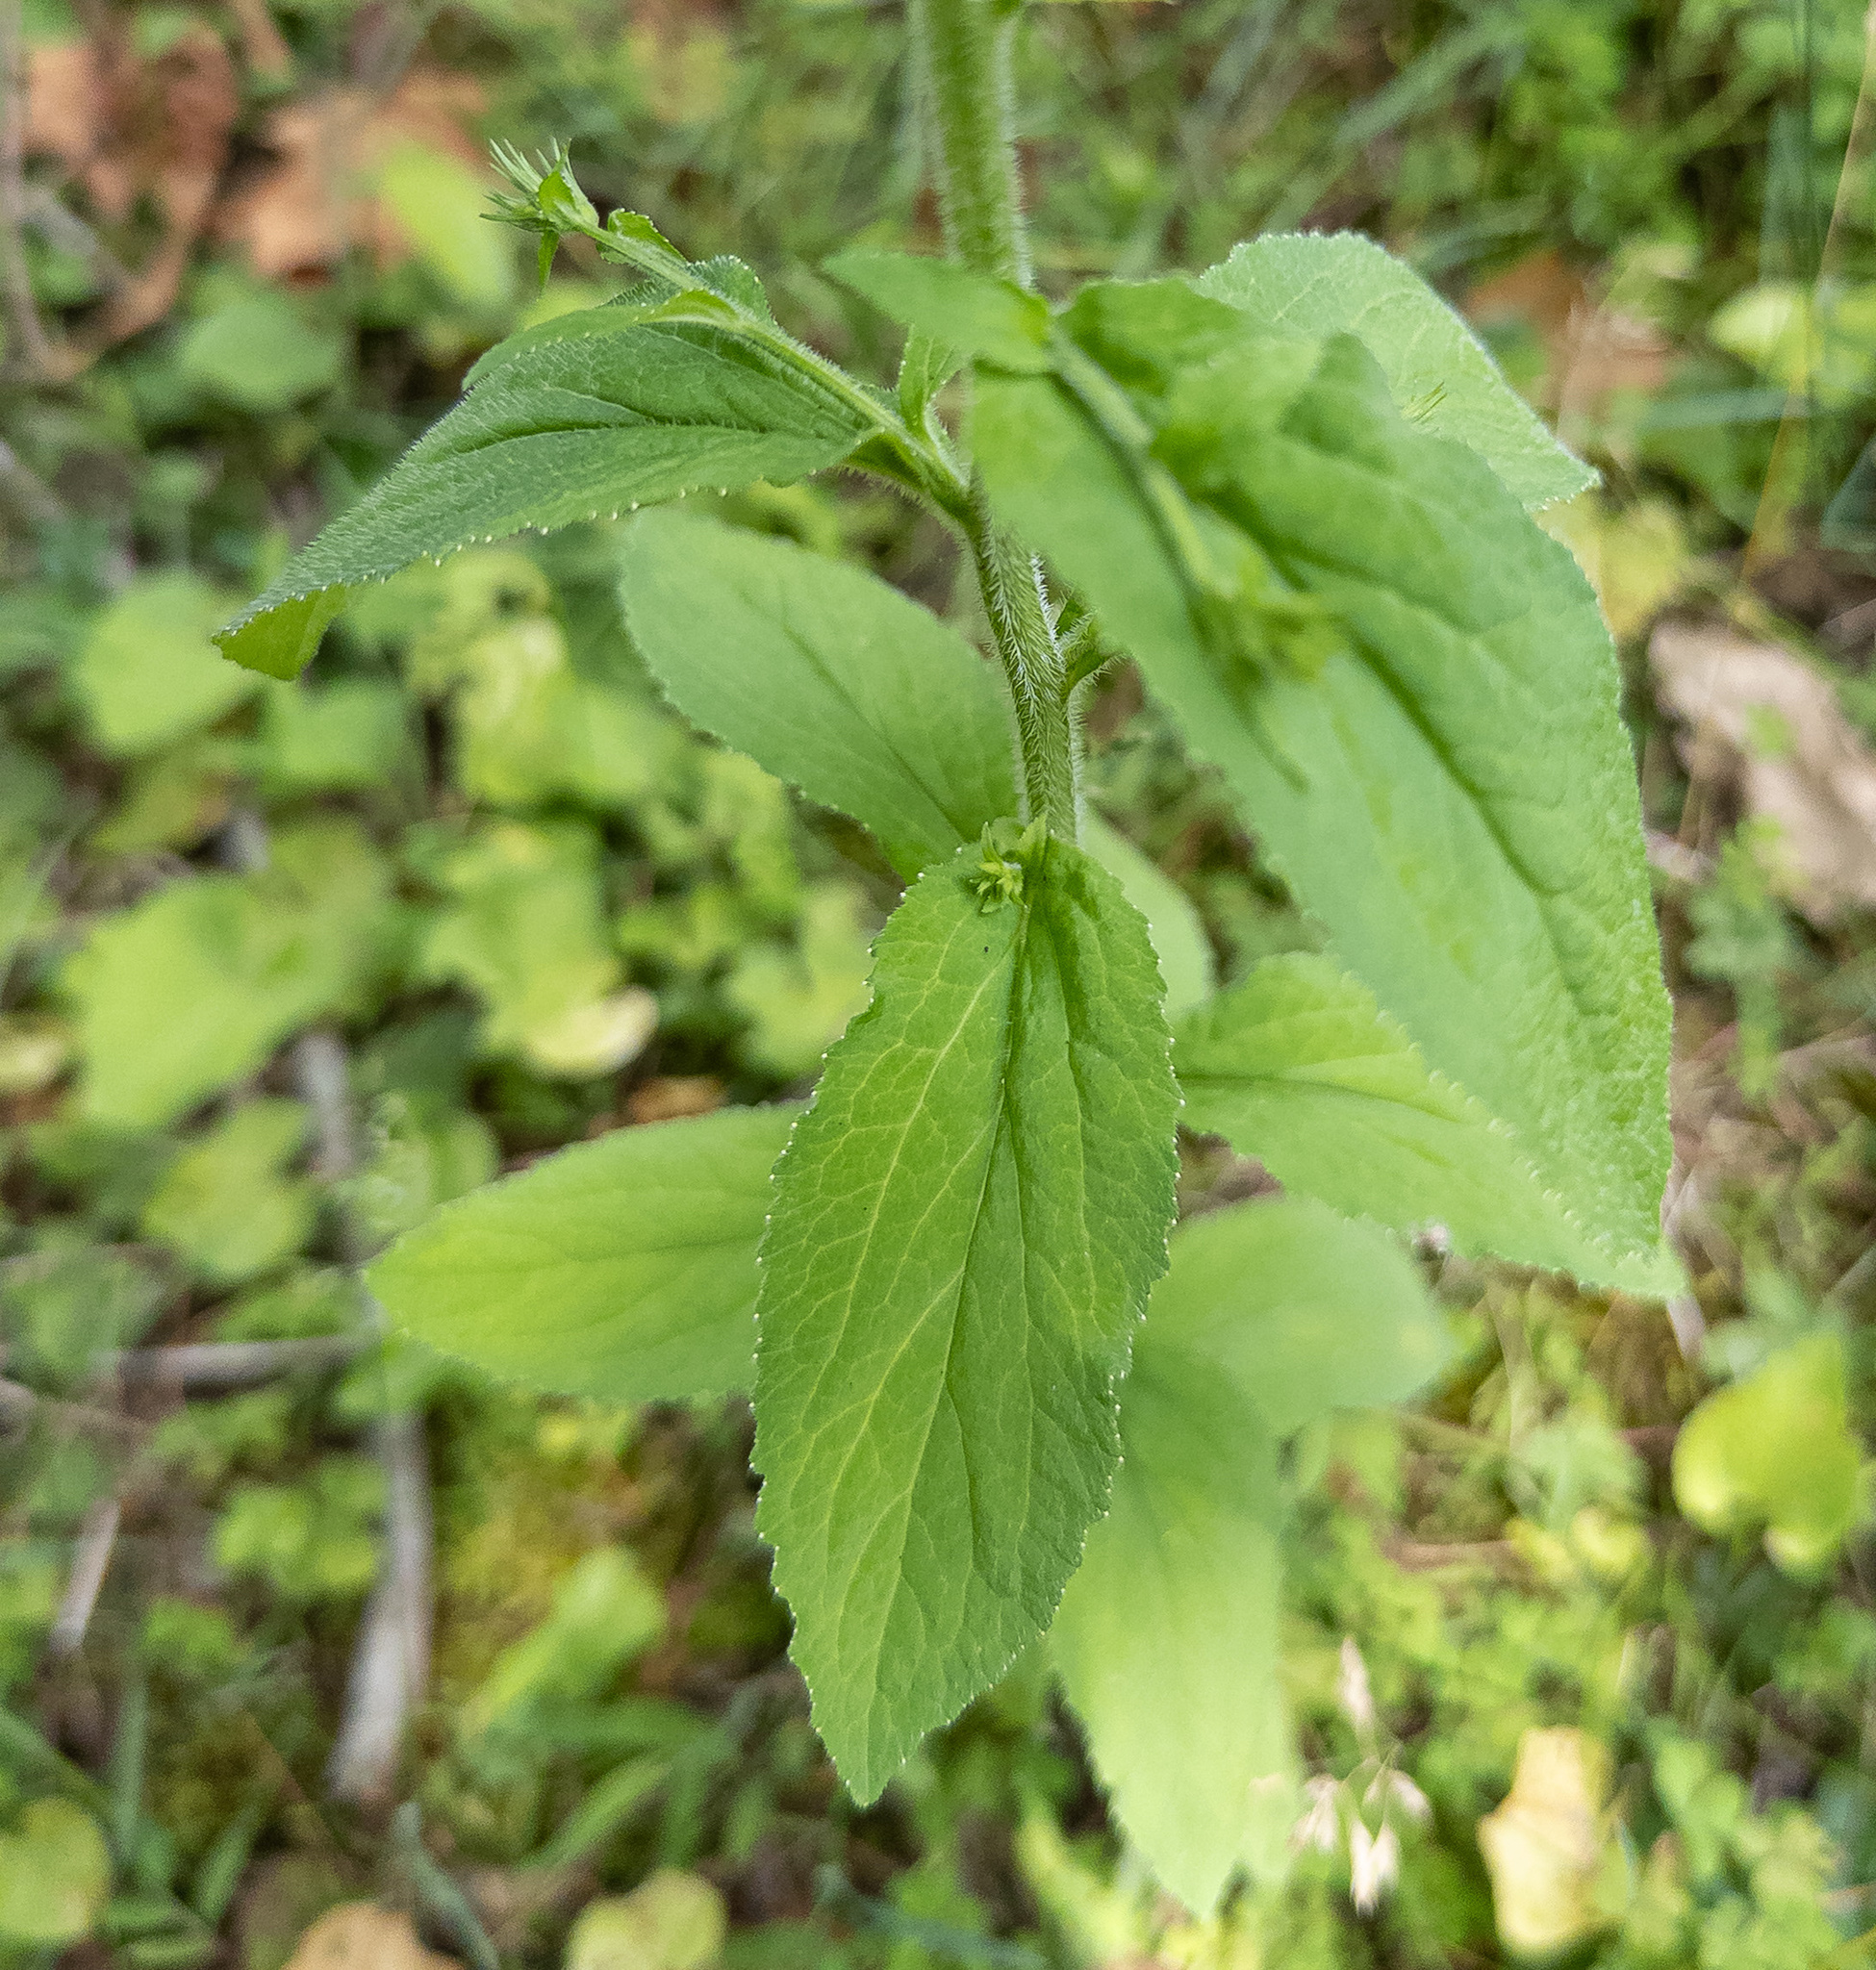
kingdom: Plantae
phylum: Tracheophyta
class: Magnoliopsida
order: Asterales
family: Campanulaceae
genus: Lobelia
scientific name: Lobelia inflata
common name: Indian tobacco
